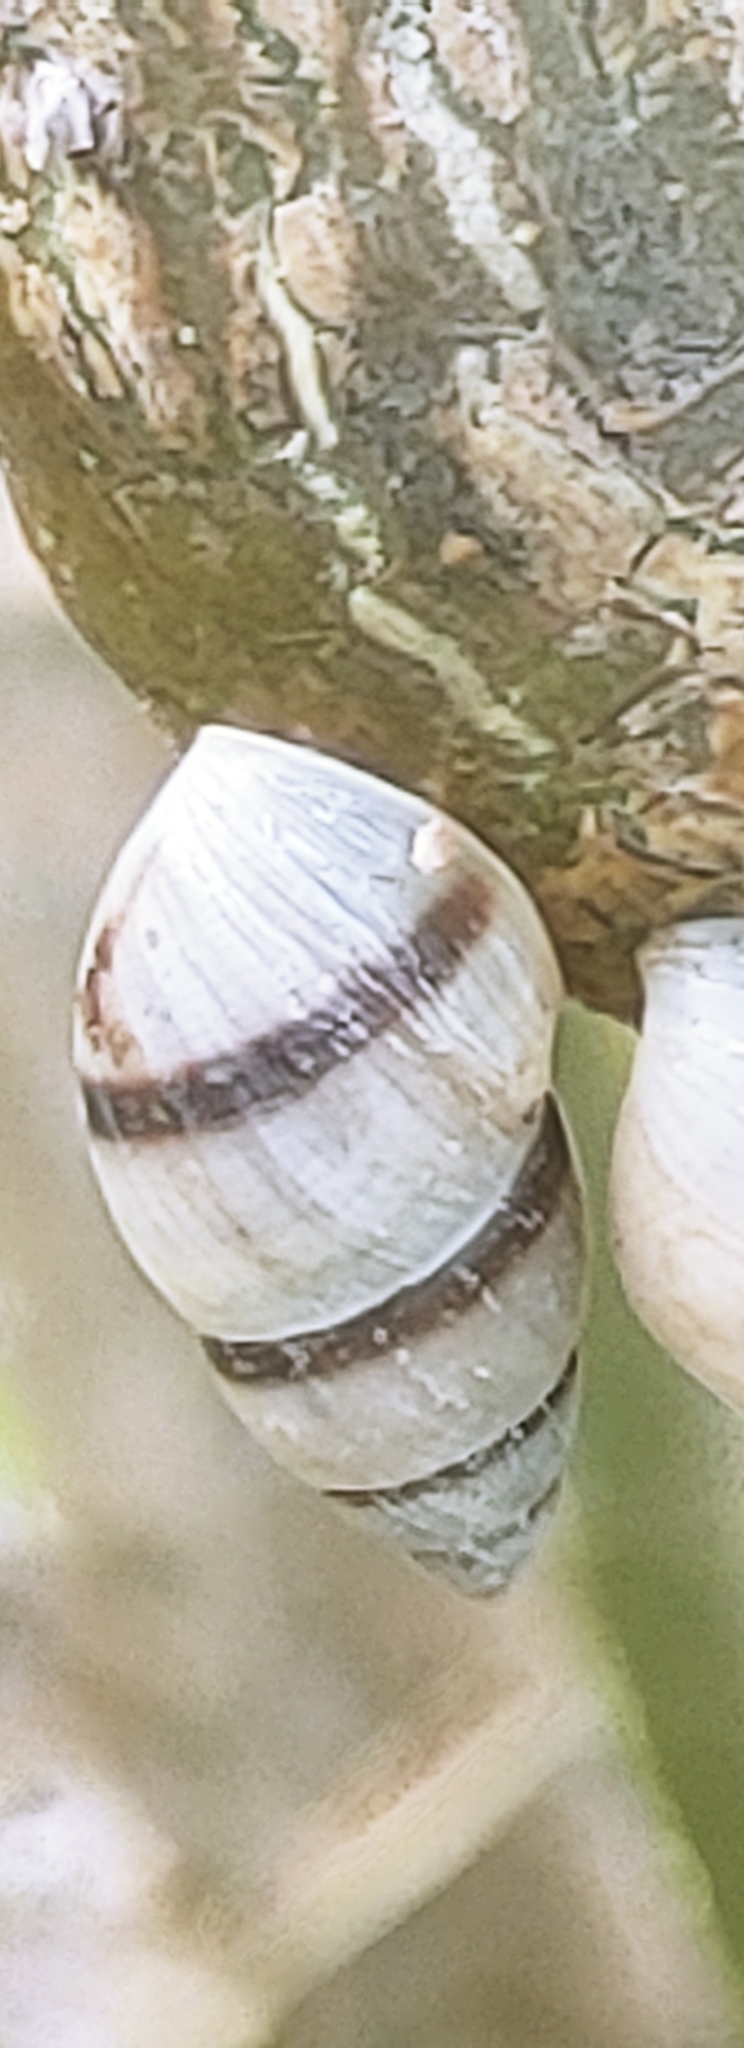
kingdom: Animalia
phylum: Mollusca
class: Gastropoda
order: Stylommatophora
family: Bulimulidae
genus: Bulimulus
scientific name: Bulimulus guadalupensis
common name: West indian bulimulus
